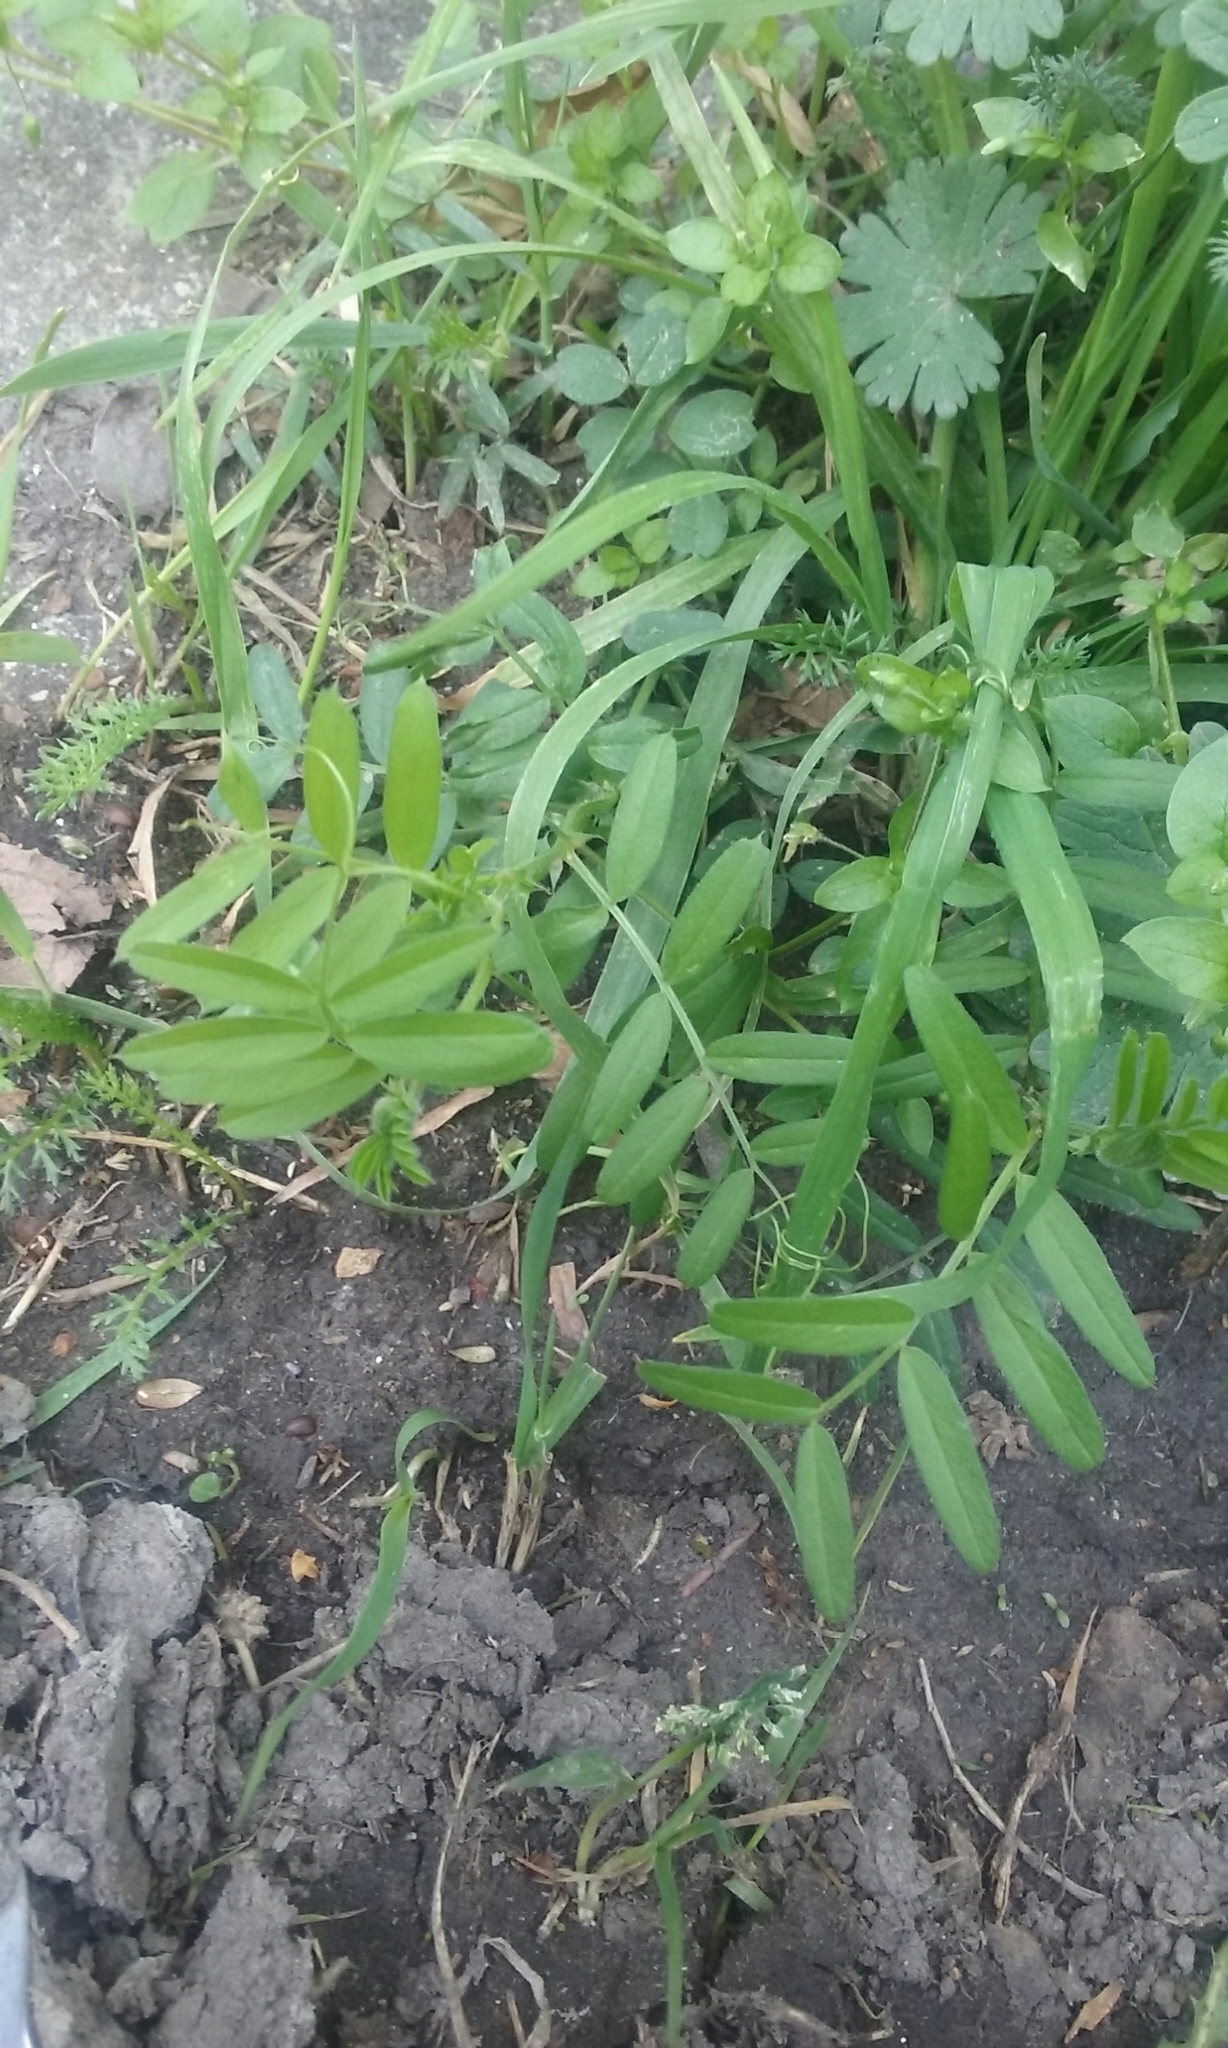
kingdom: Plantae
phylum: Tracheophyta
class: Magnoliopsida
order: Fabales
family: Fabaceae
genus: Vicia
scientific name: Vicia sativa
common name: Garden vetch
